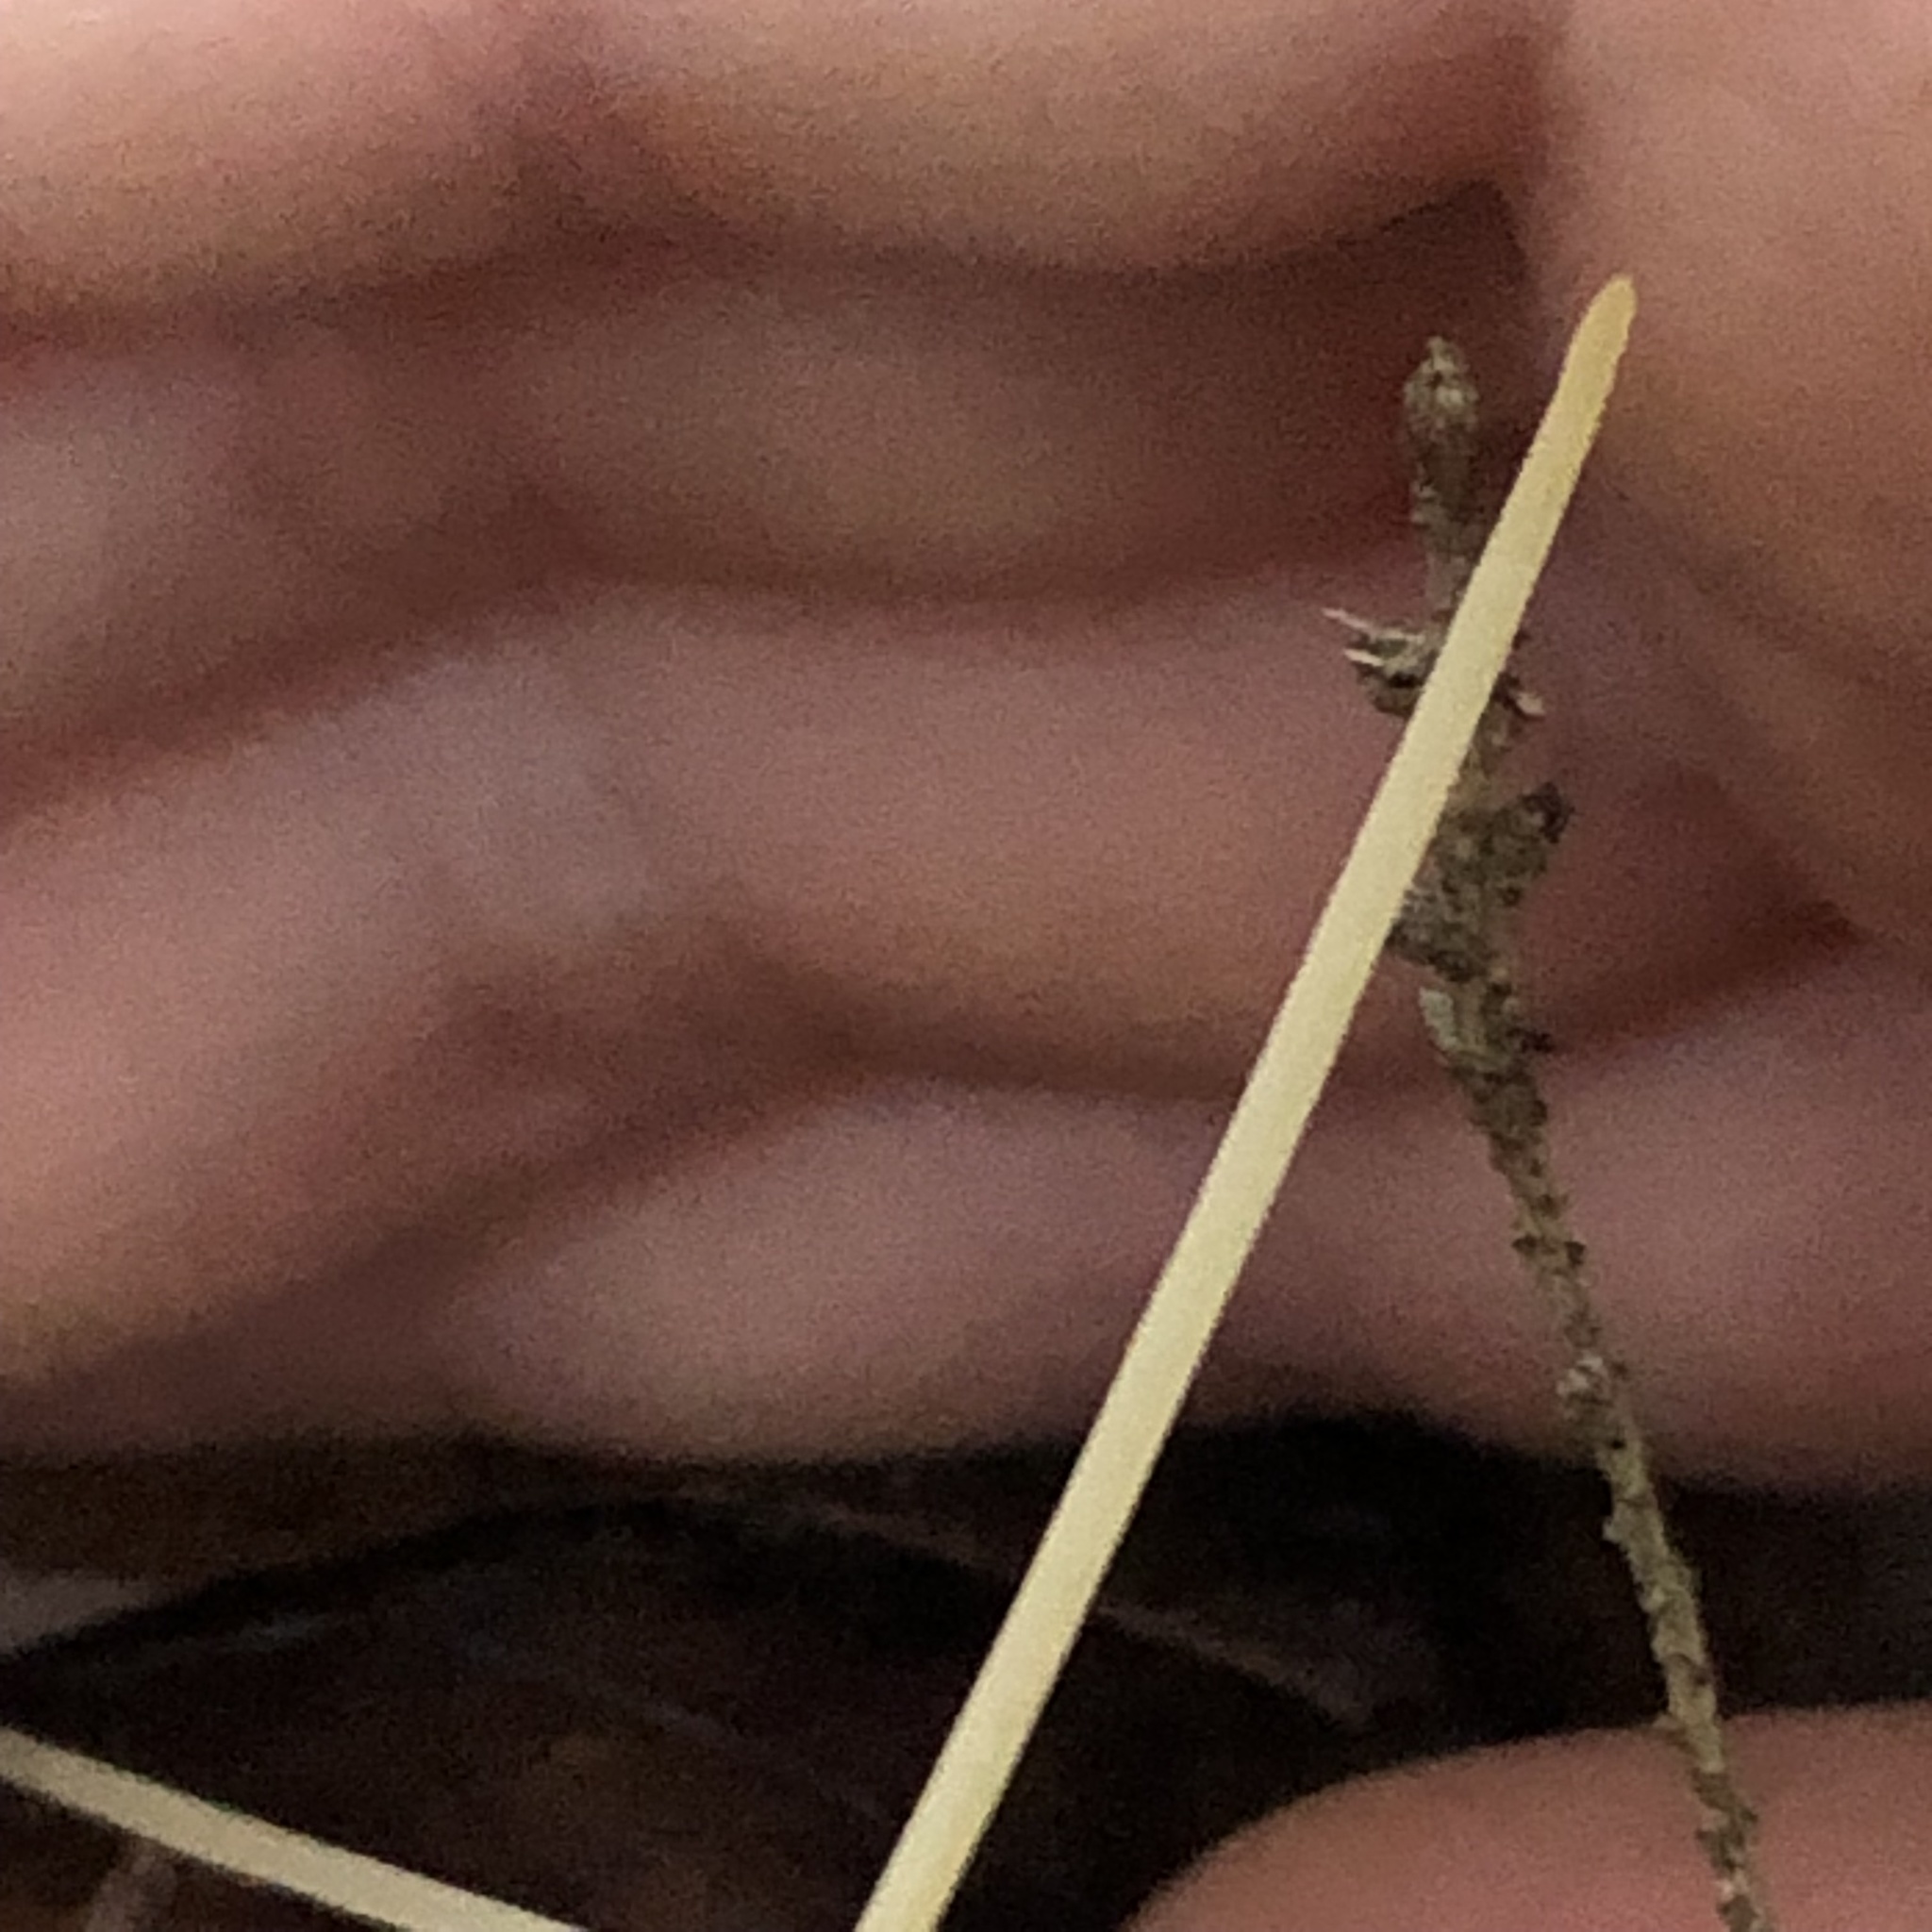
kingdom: Fungi
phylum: Basidiomycota
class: Agaricomycetes
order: Agaricales
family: Typhulaceae
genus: Typhula
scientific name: Typhula juncea
